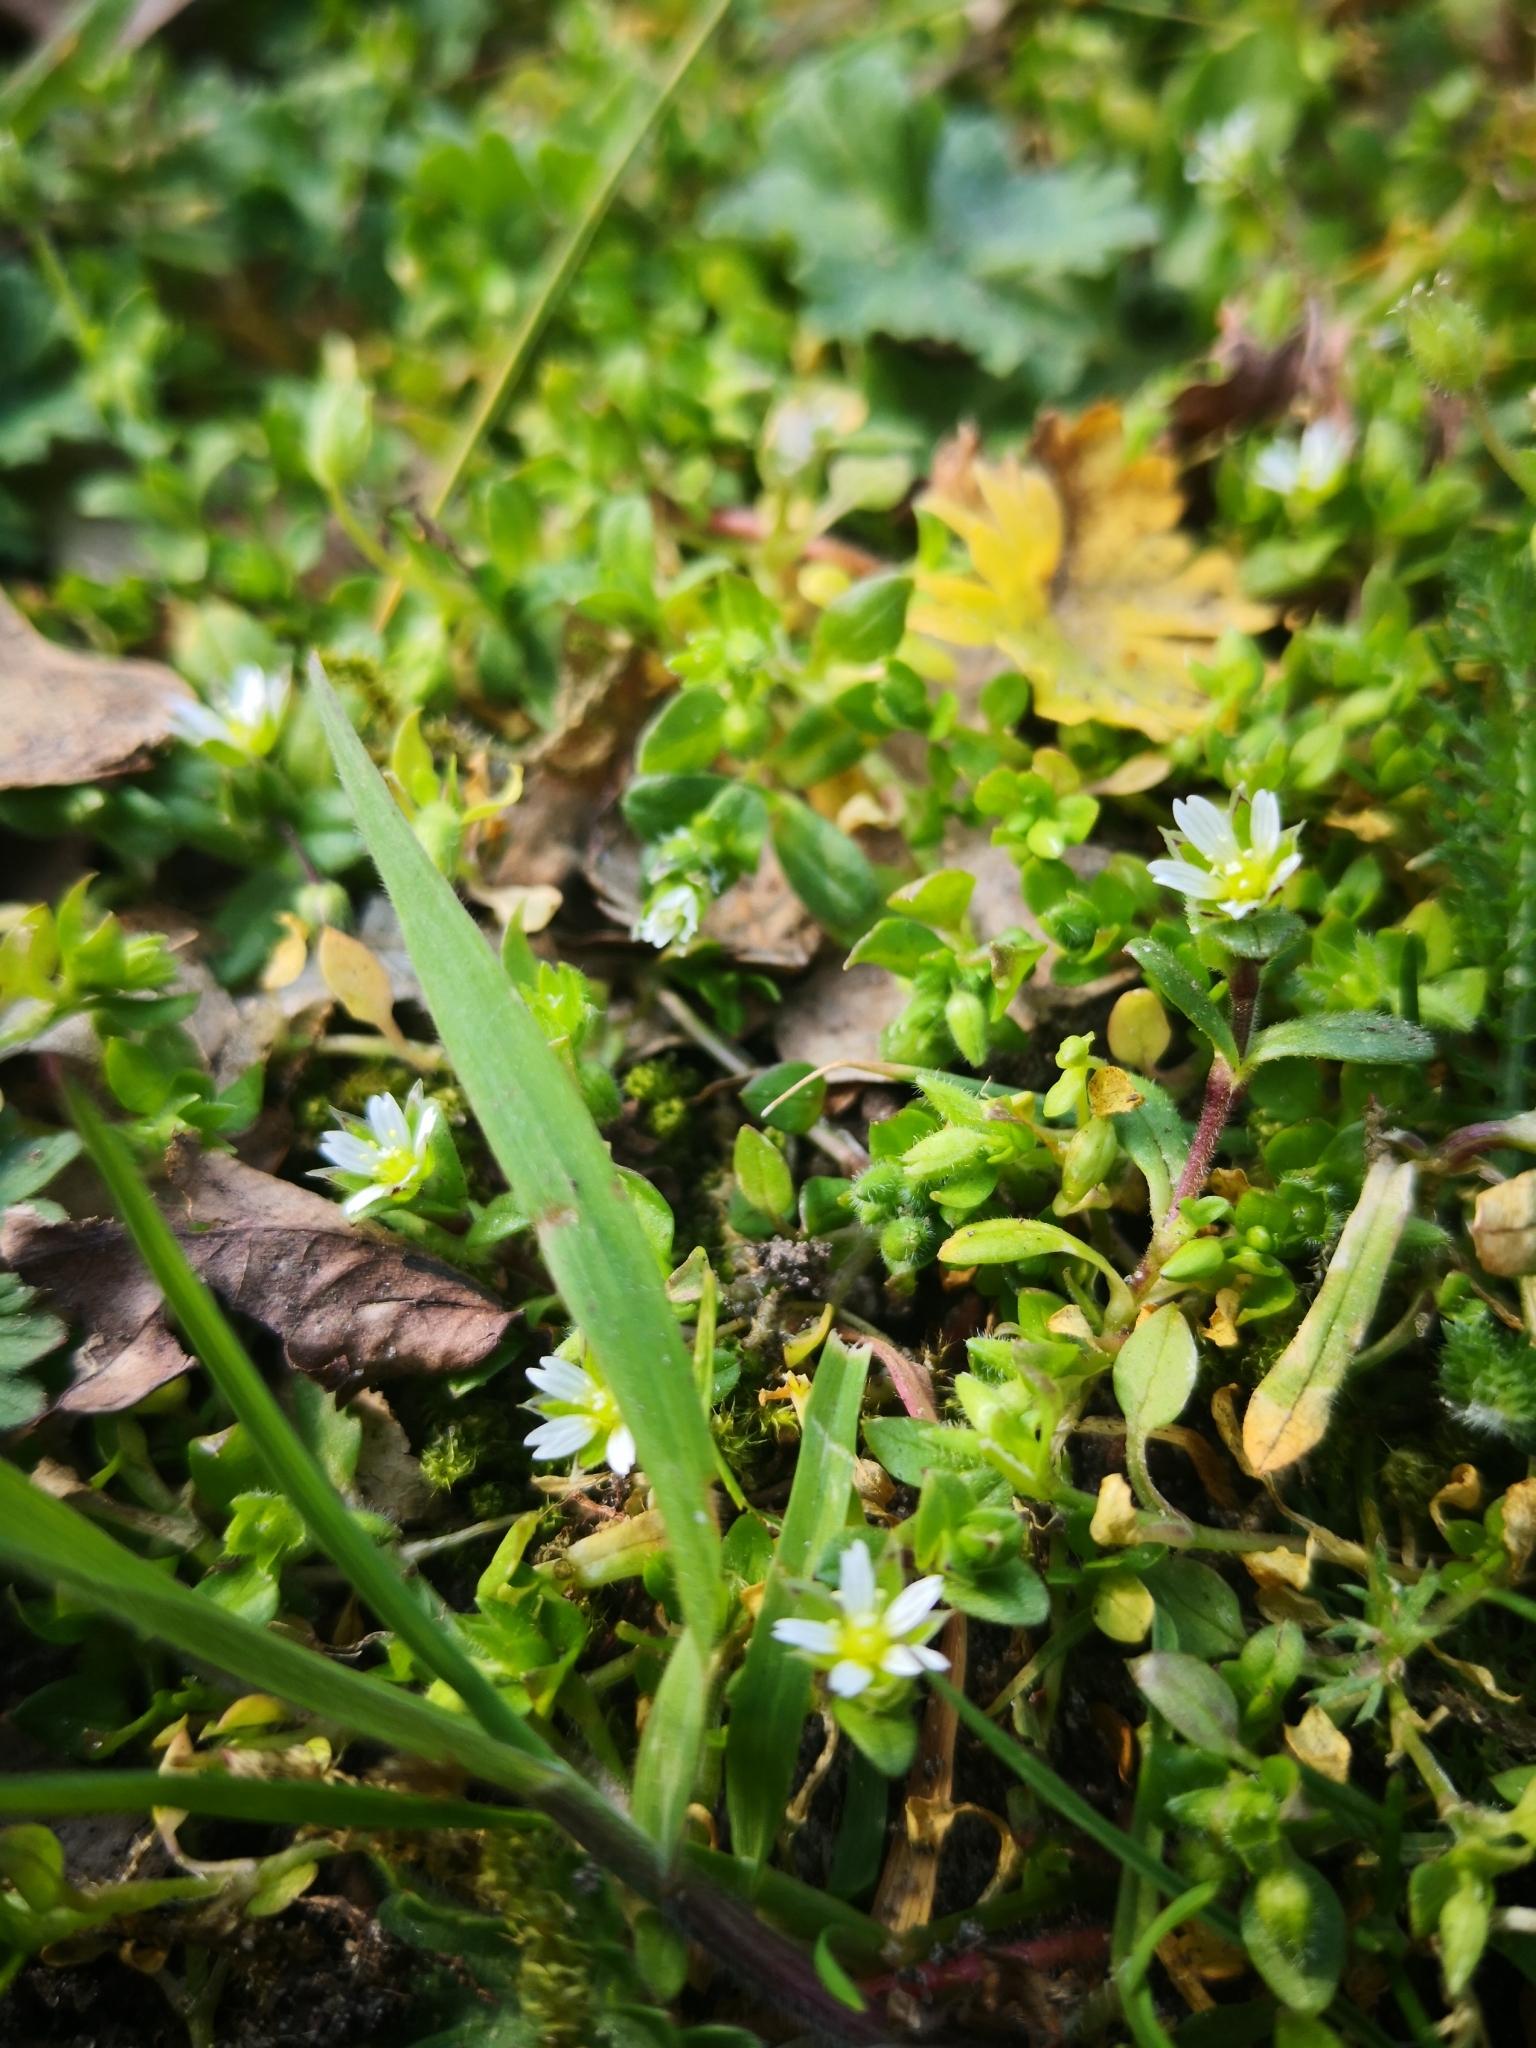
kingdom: Plantae
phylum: Tracheophyta
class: Magnoliopsida
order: Caryophyllales
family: Caryophyllaceae
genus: Stellaria
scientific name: Stellaria media
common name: Common chickweed
